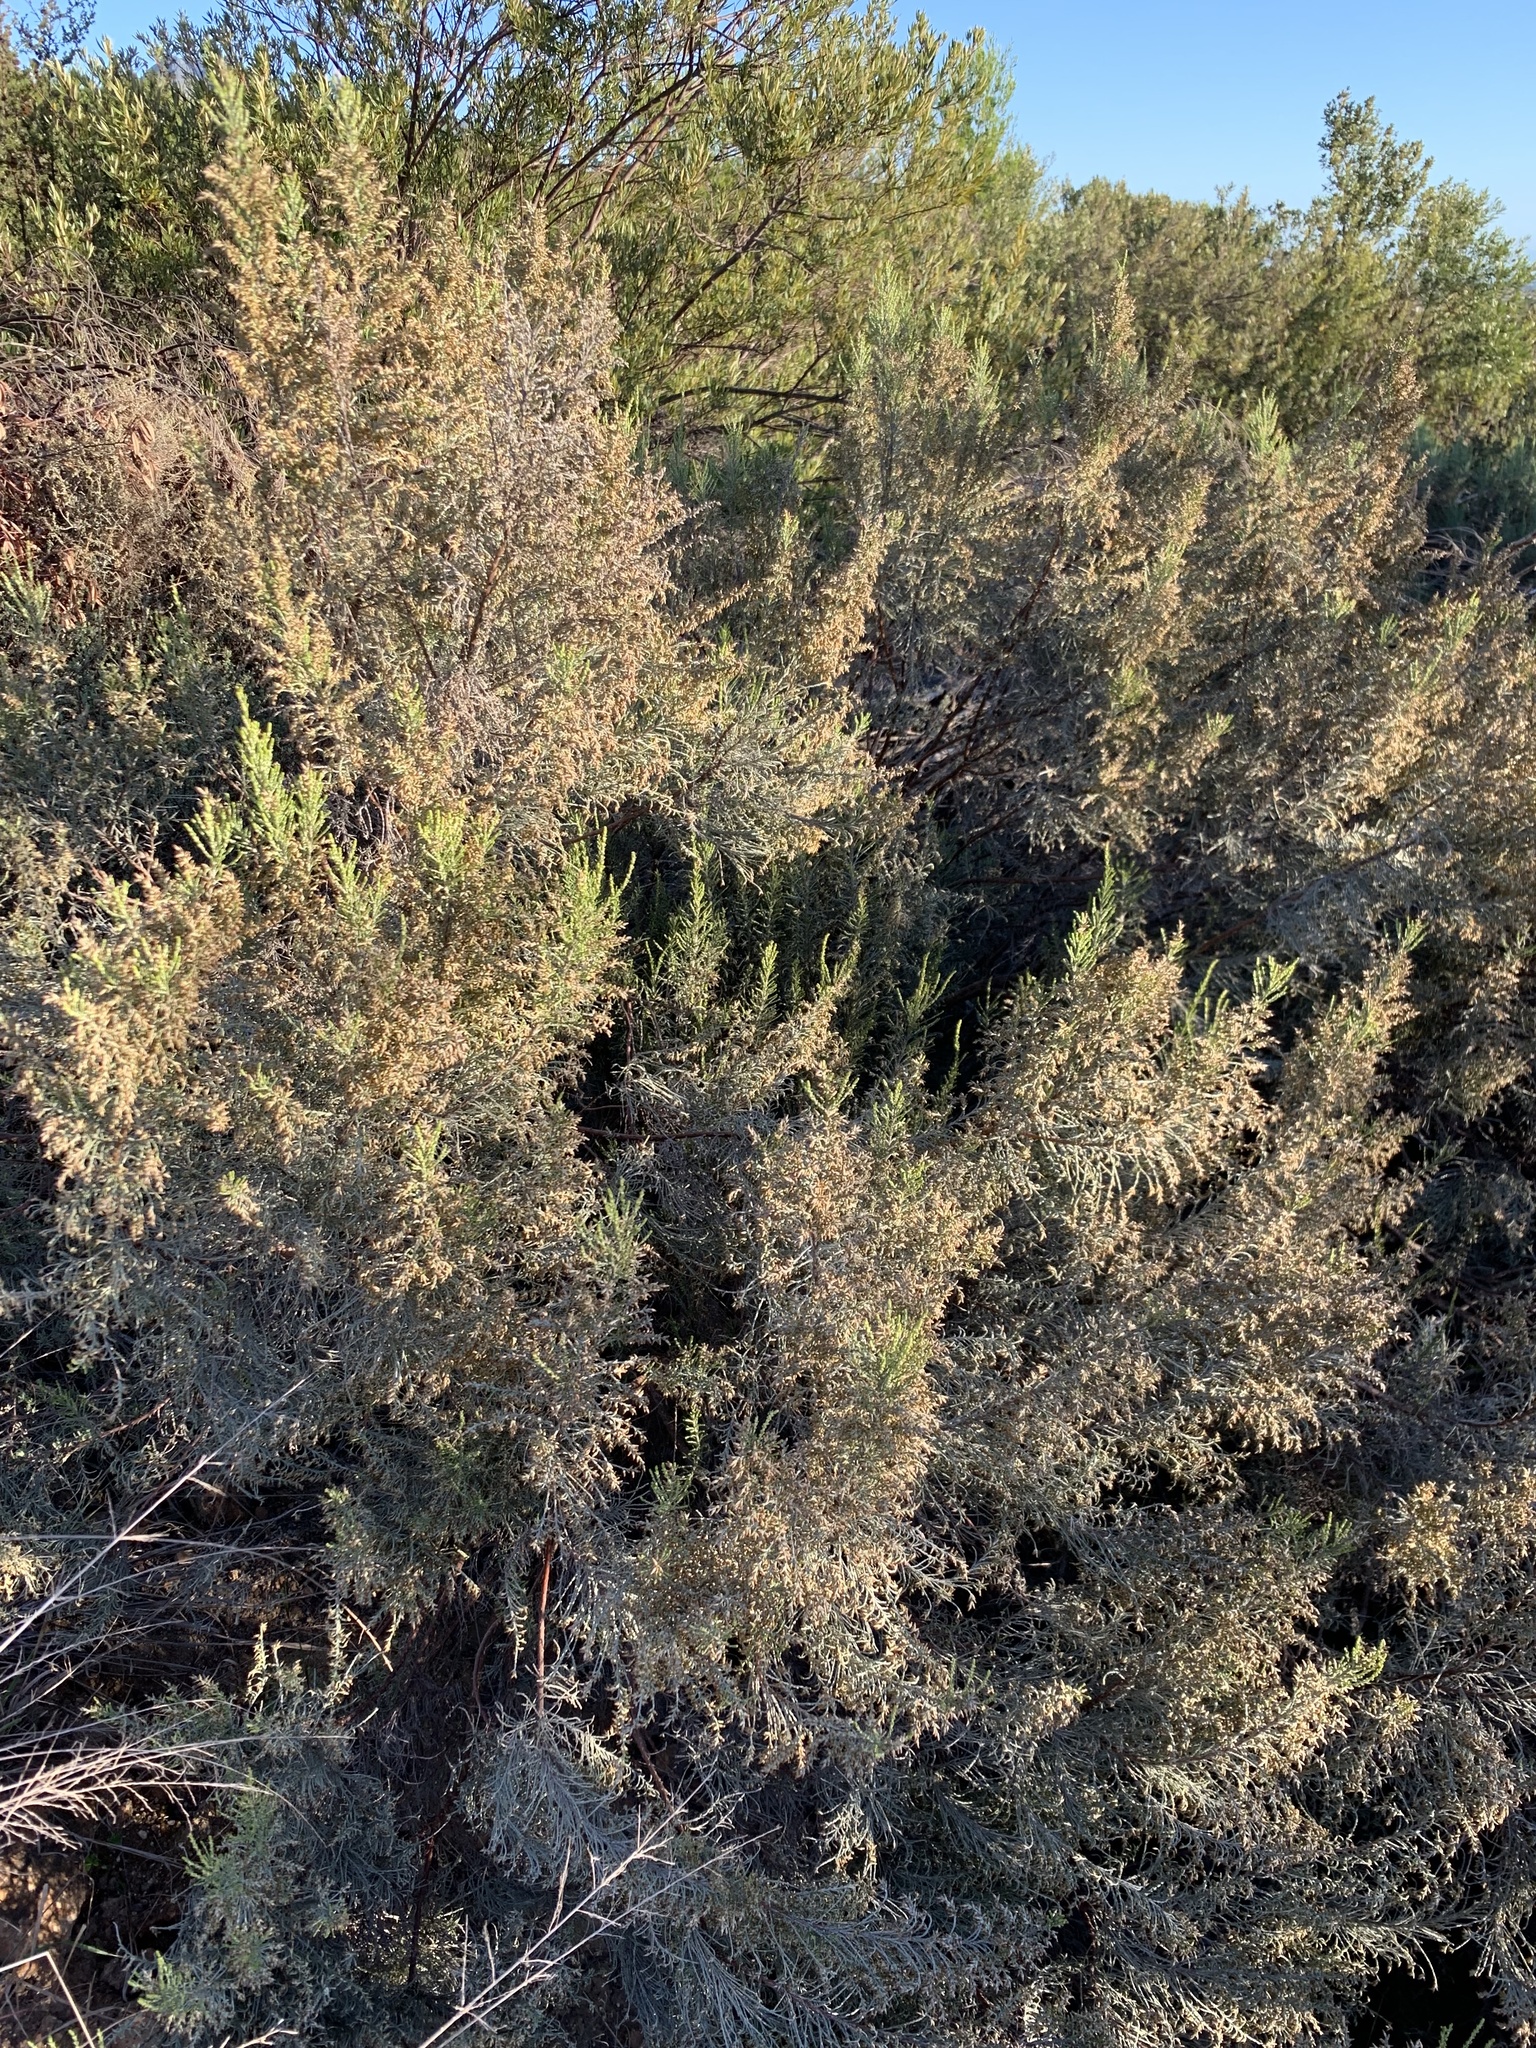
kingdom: Plantae
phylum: Tracheophyta
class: Magnoliopsida
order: Asterales
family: Asteraceae
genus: Dicerothamnus
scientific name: Dicerothamnus rhinocerotis
